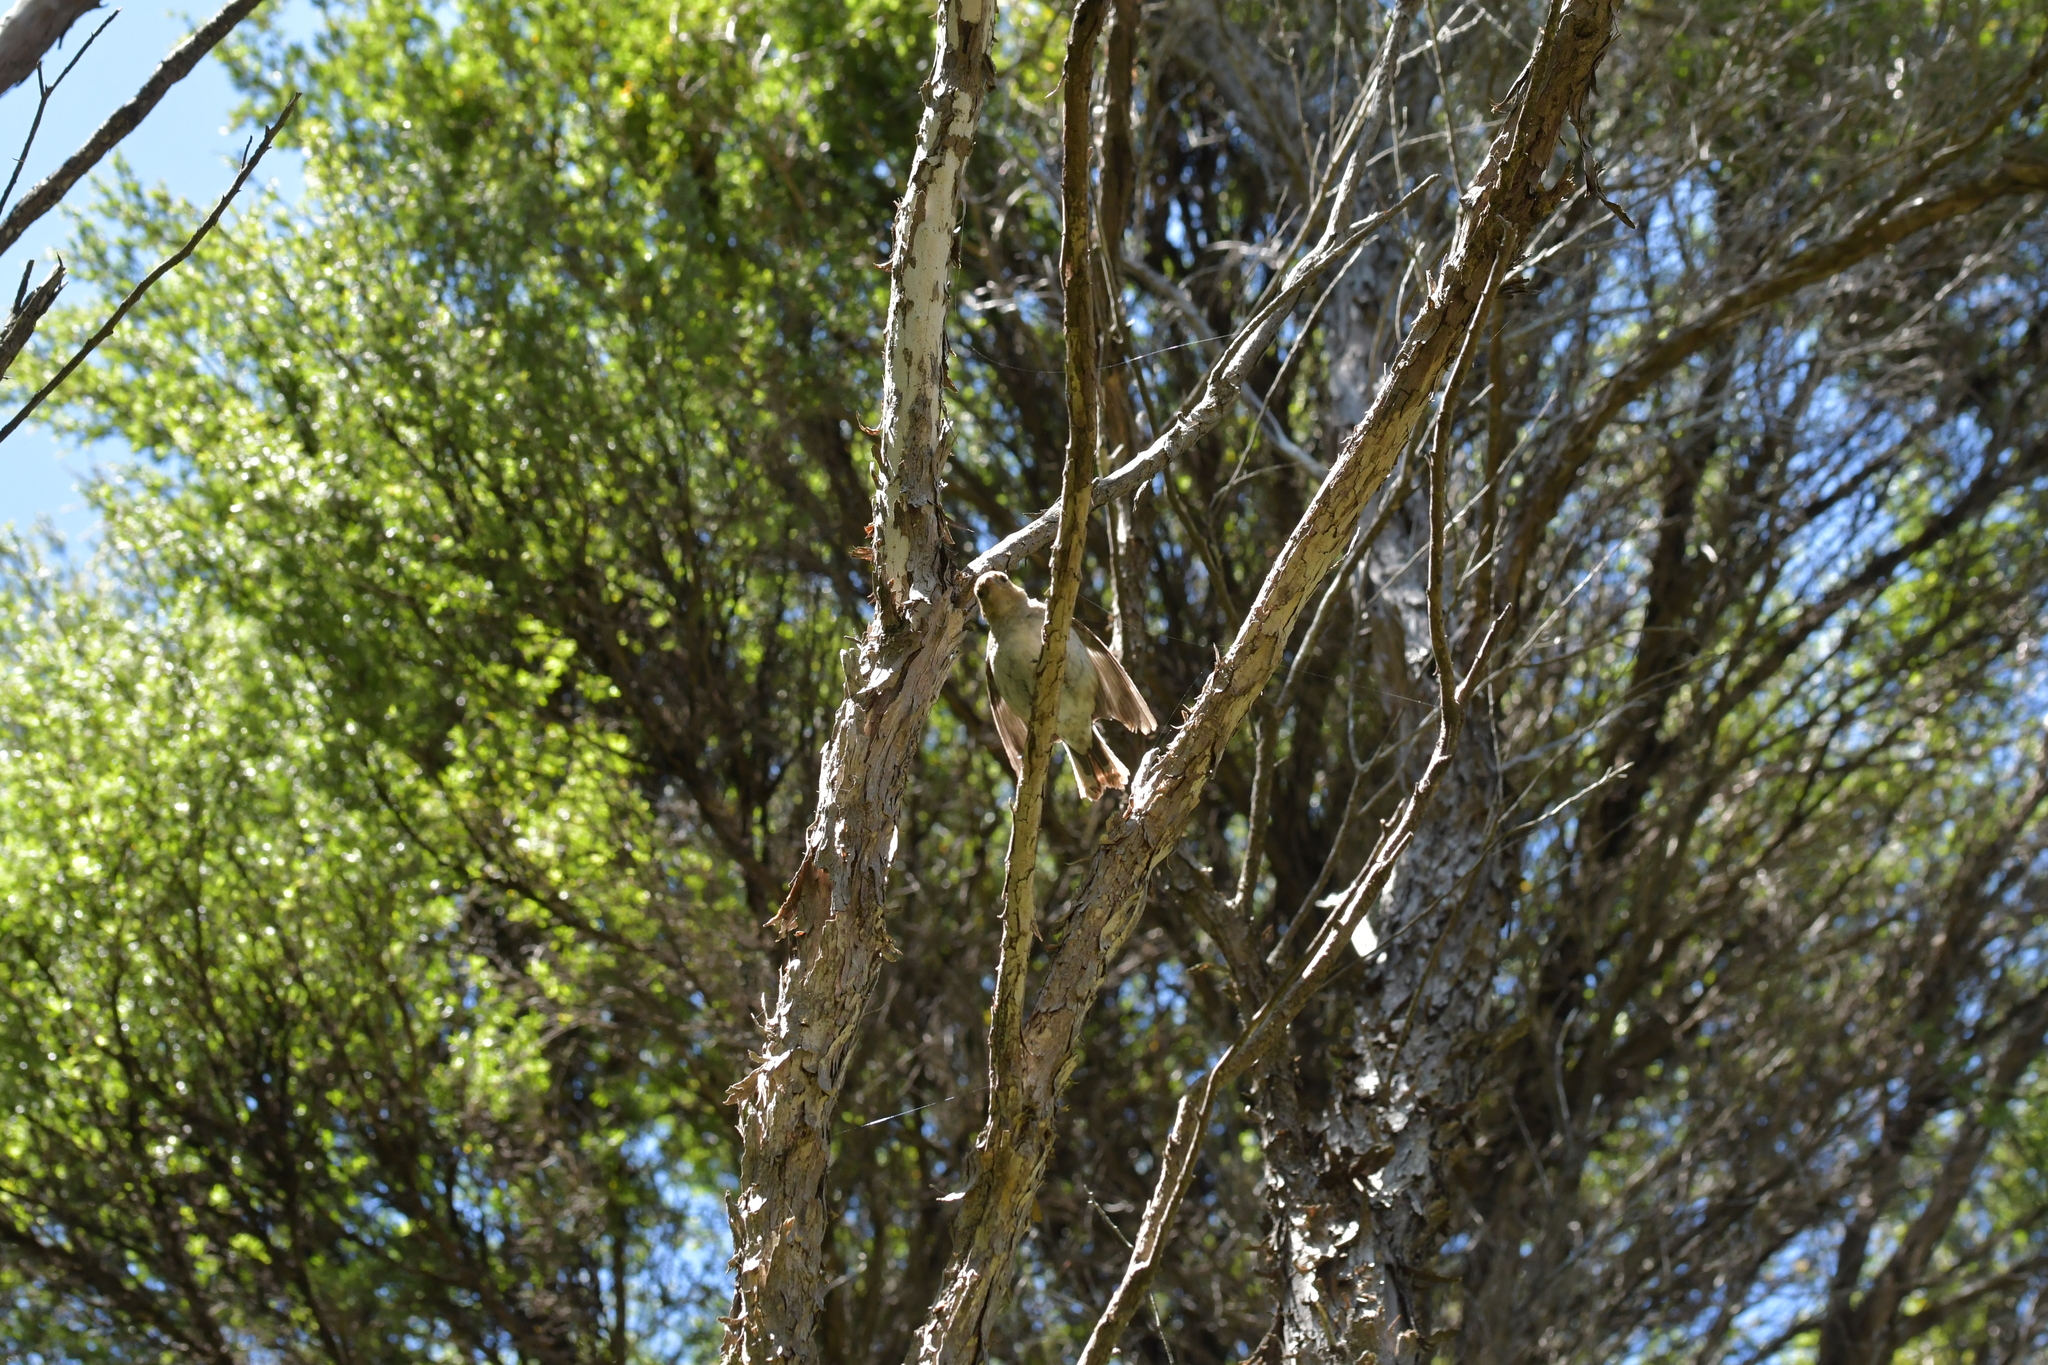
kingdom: Animalia
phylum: Chordata
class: Aves
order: Passeriformes
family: Fringillidae
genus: Fringilla
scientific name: Fringilla coelebs
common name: Common chaffinch
